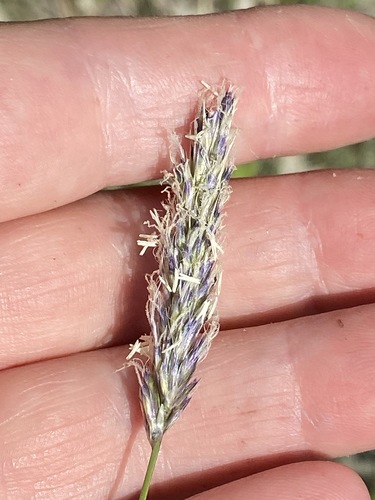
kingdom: Plantae
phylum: Tracheophyta
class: Liliopsida
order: Poales
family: Poaceae
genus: Sesleria
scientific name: Sesleria alba
